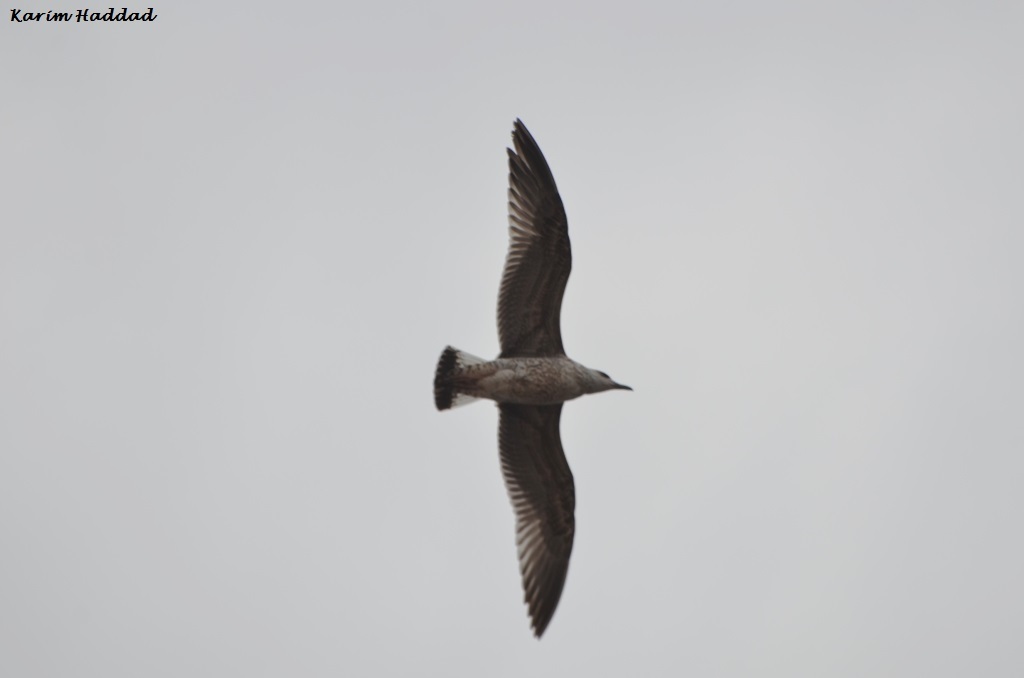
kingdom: Animalia
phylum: Chordata
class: Aves
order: Charadriiformes
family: Laridae
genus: Larus
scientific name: Larus michahellis
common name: Yellow-legged gull
